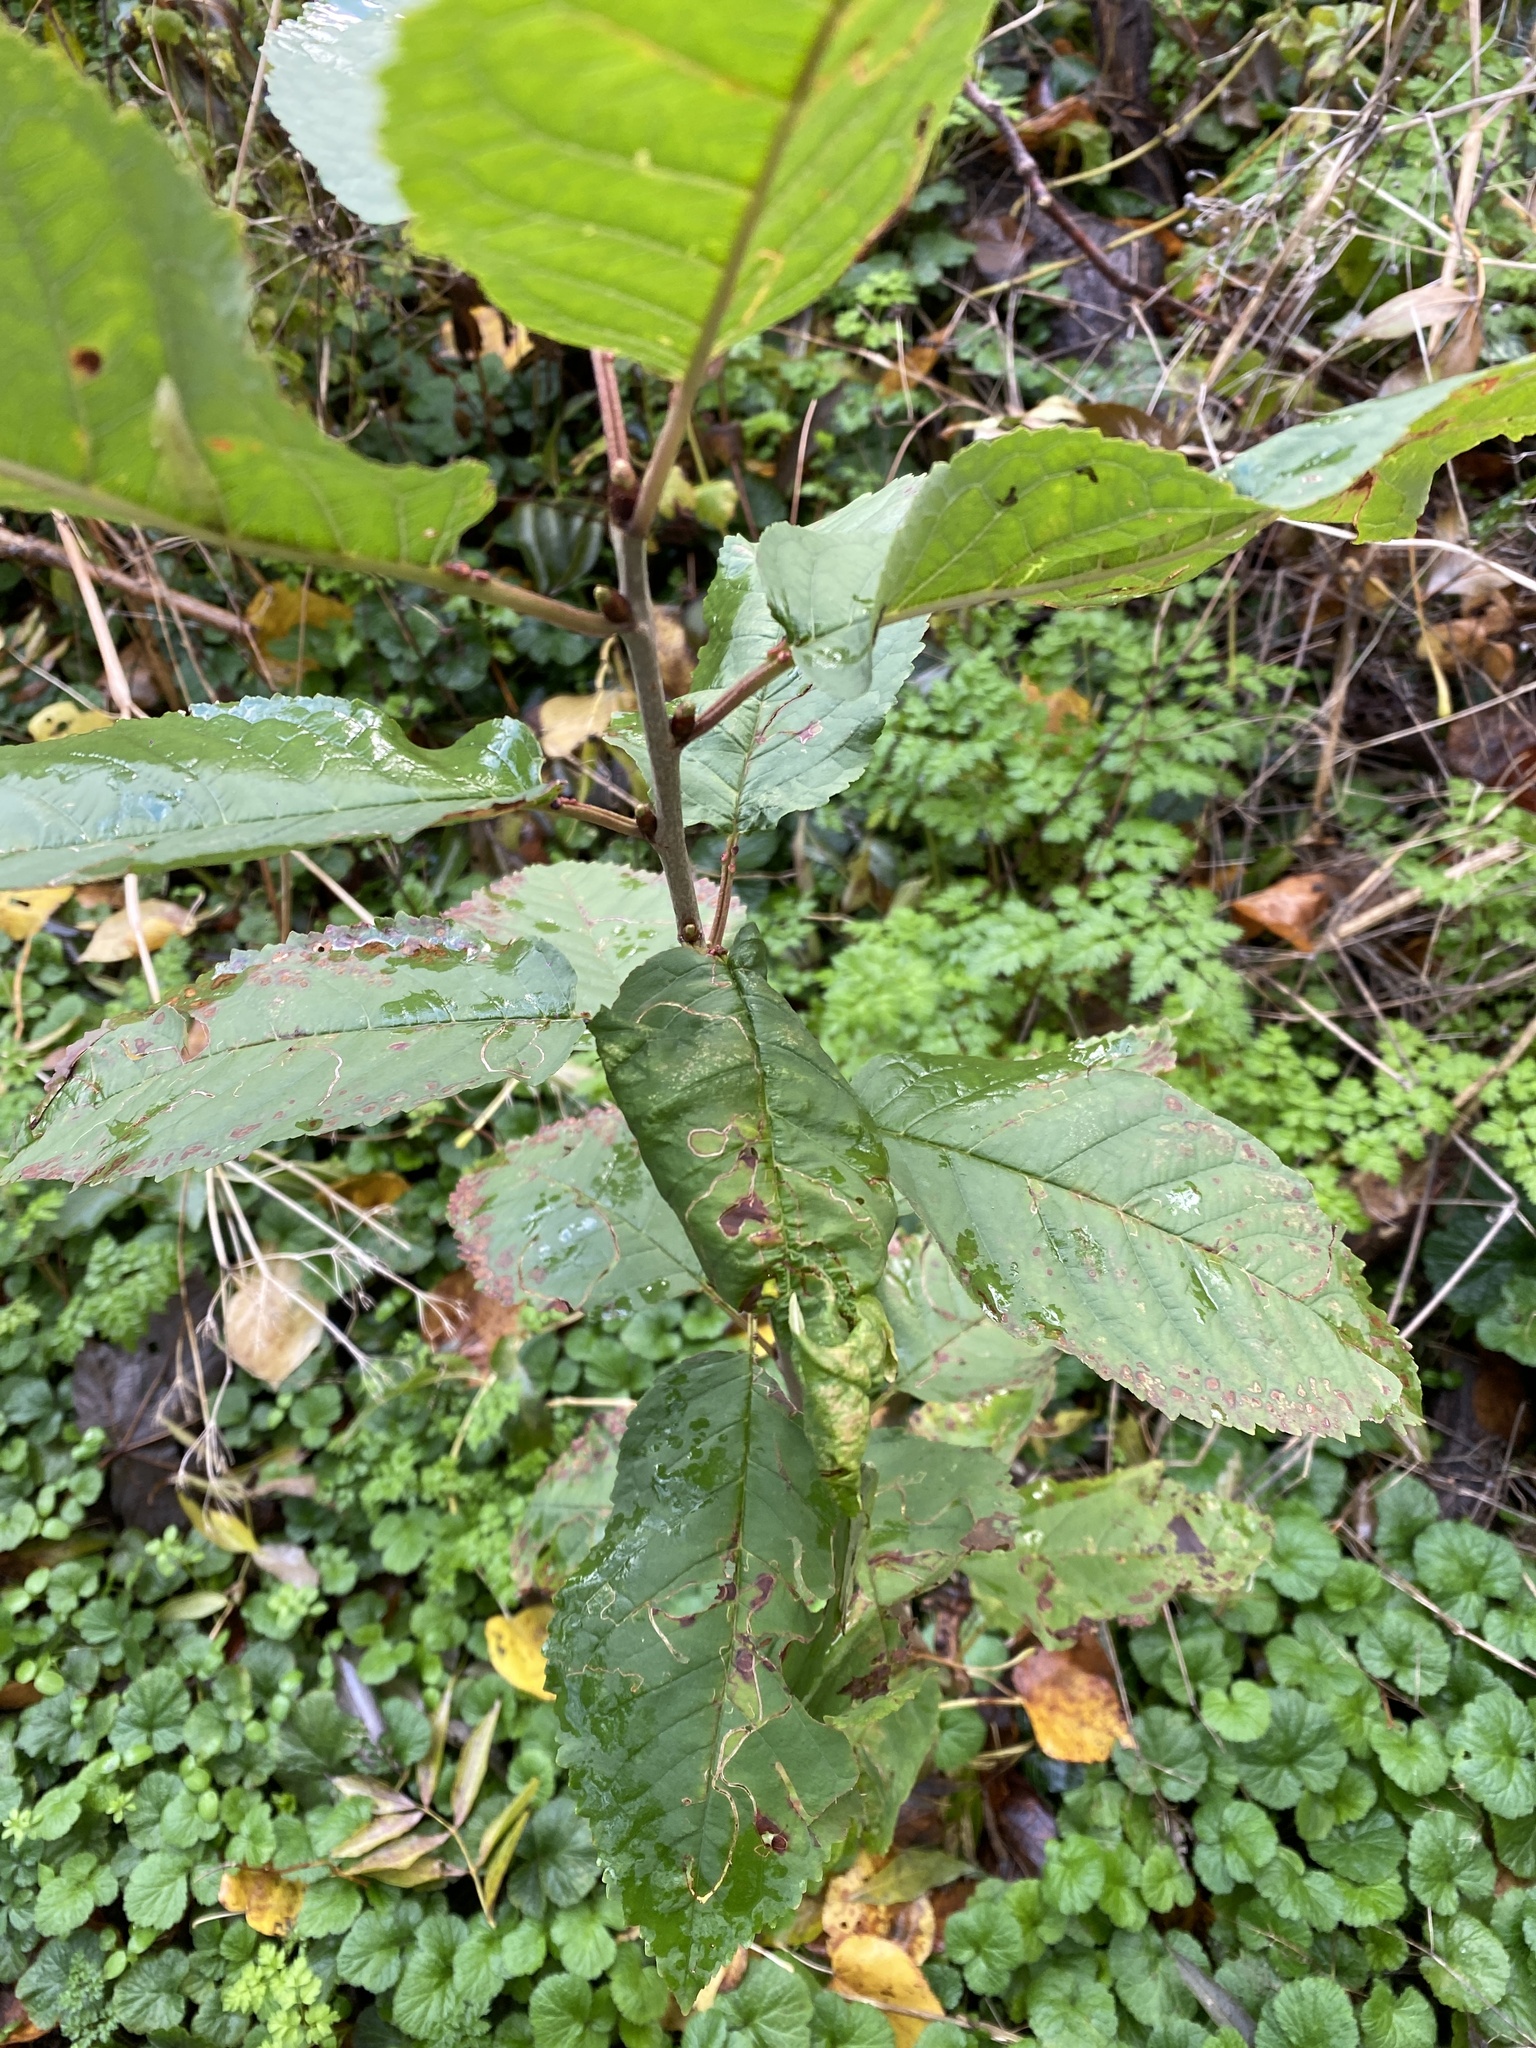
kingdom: Plantae
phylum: Tracheophyta
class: Magnoliopsida
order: Rosales
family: Rosaceae
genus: Prunus
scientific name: Prunus avium
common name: Sweet cherry
